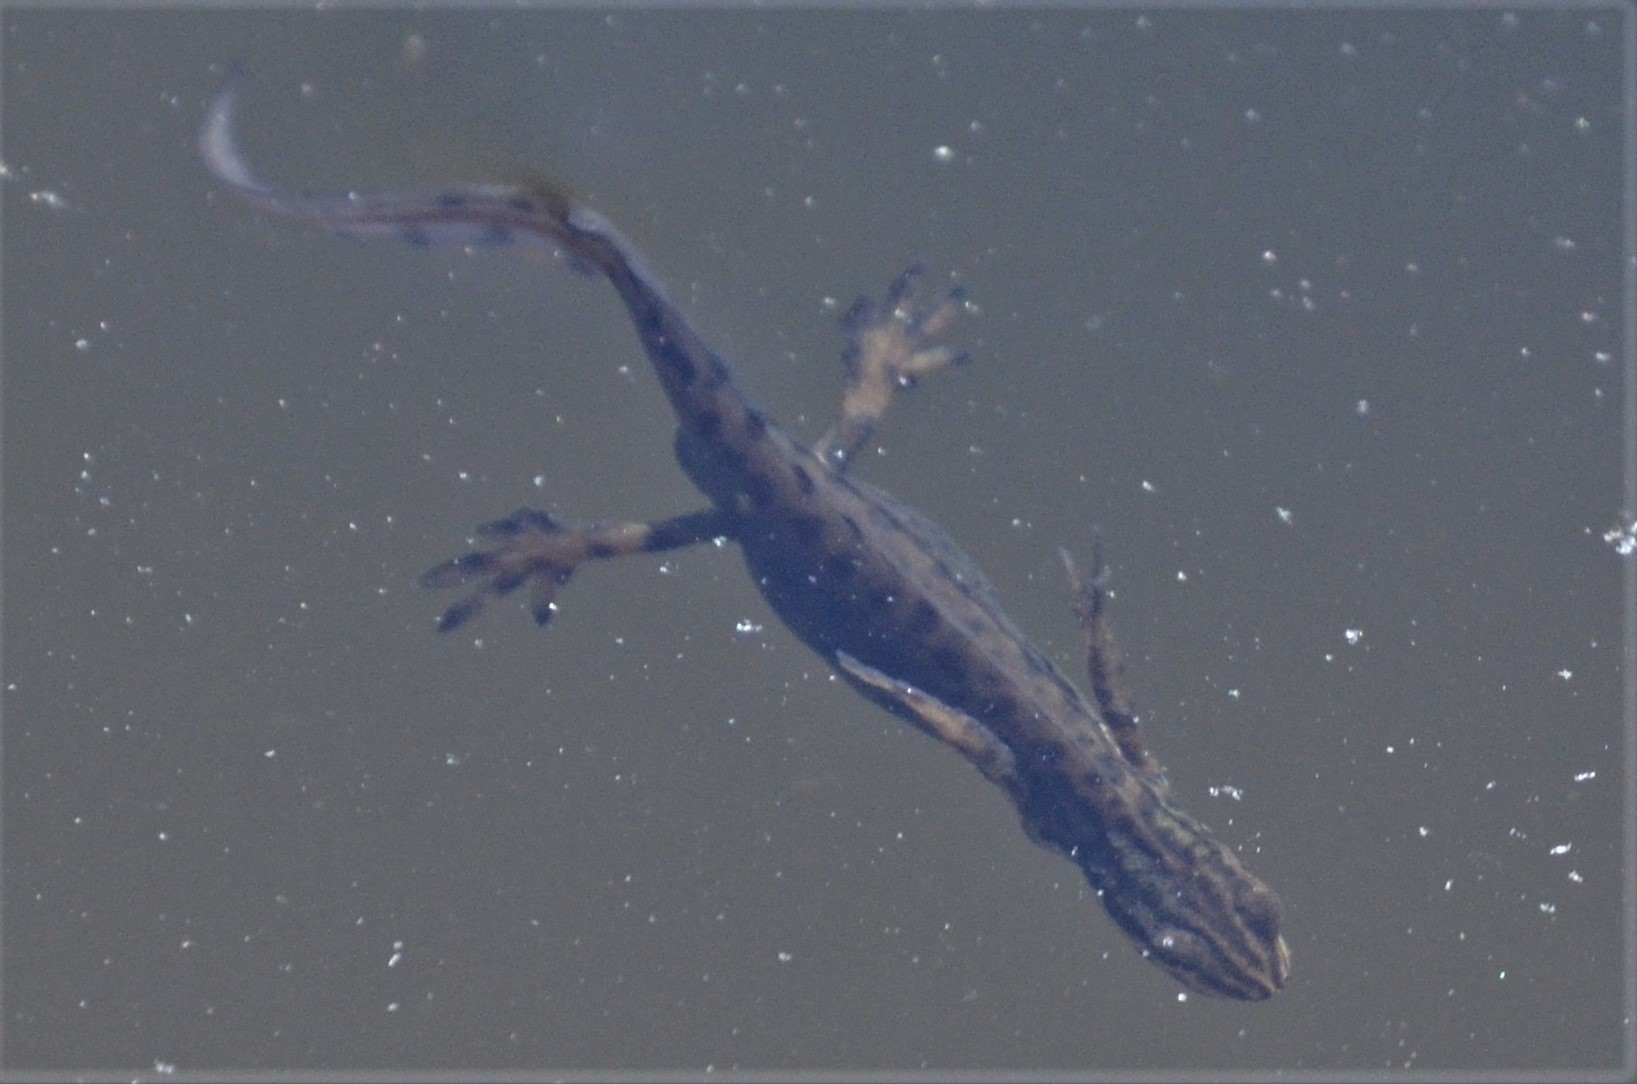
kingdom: Animalia
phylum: Chordata
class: Amphibia
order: Caudata
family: Salamandridae
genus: Lissotriton
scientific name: Lissotriton vulgaris
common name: Smooth newt
